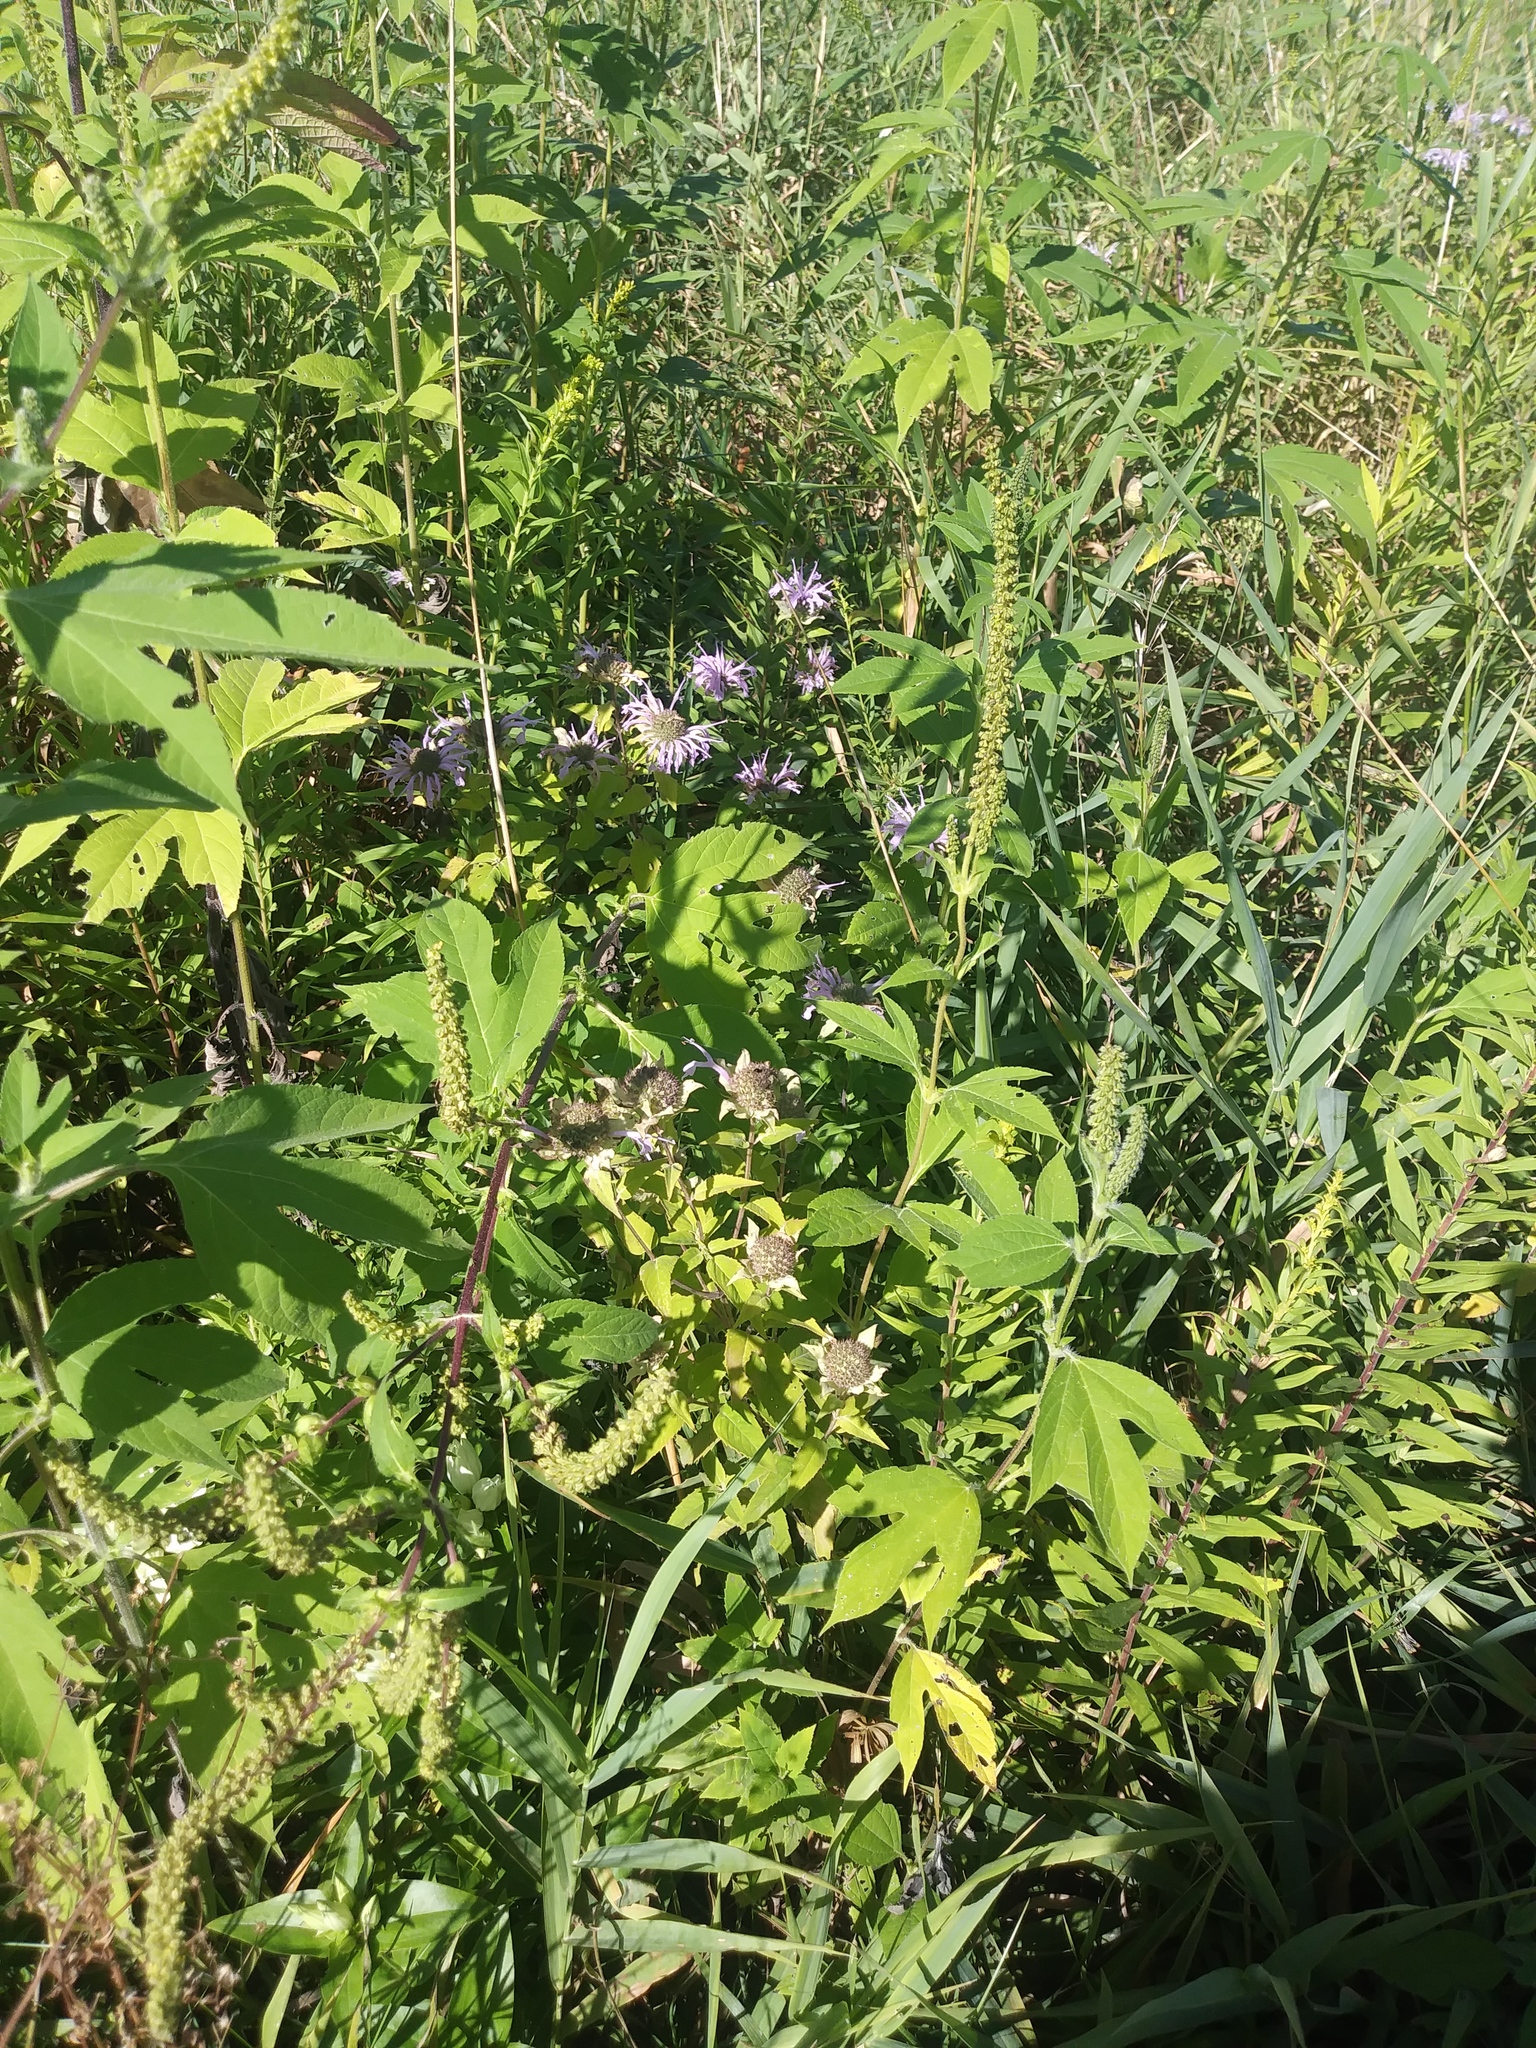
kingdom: Plantae
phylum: Tracheophyta
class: Magnoliopsida
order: Asterales
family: Asteraceae
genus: Ambrosia
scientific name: Ambrosia trifida
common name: Giant ragweed
